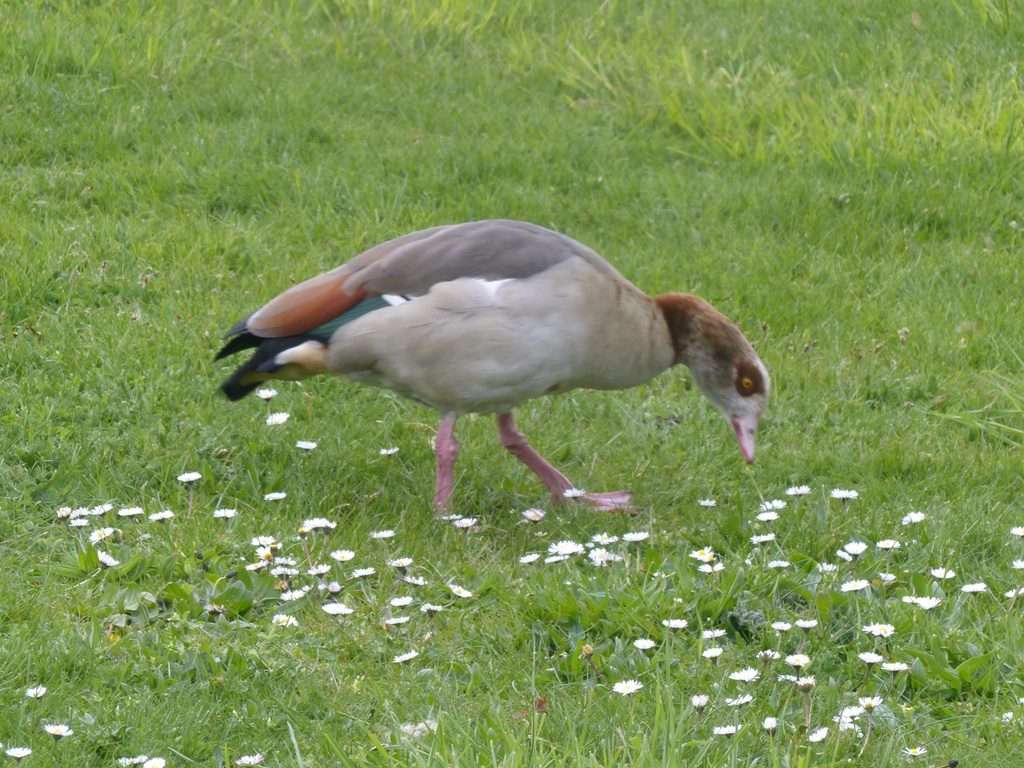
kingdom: Animalia
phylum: Chordata
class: Aves
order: Anseriformes
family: Anatidae
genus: Alopochen
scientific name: Alopochen aegyptiaca
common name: Egyptian goose
